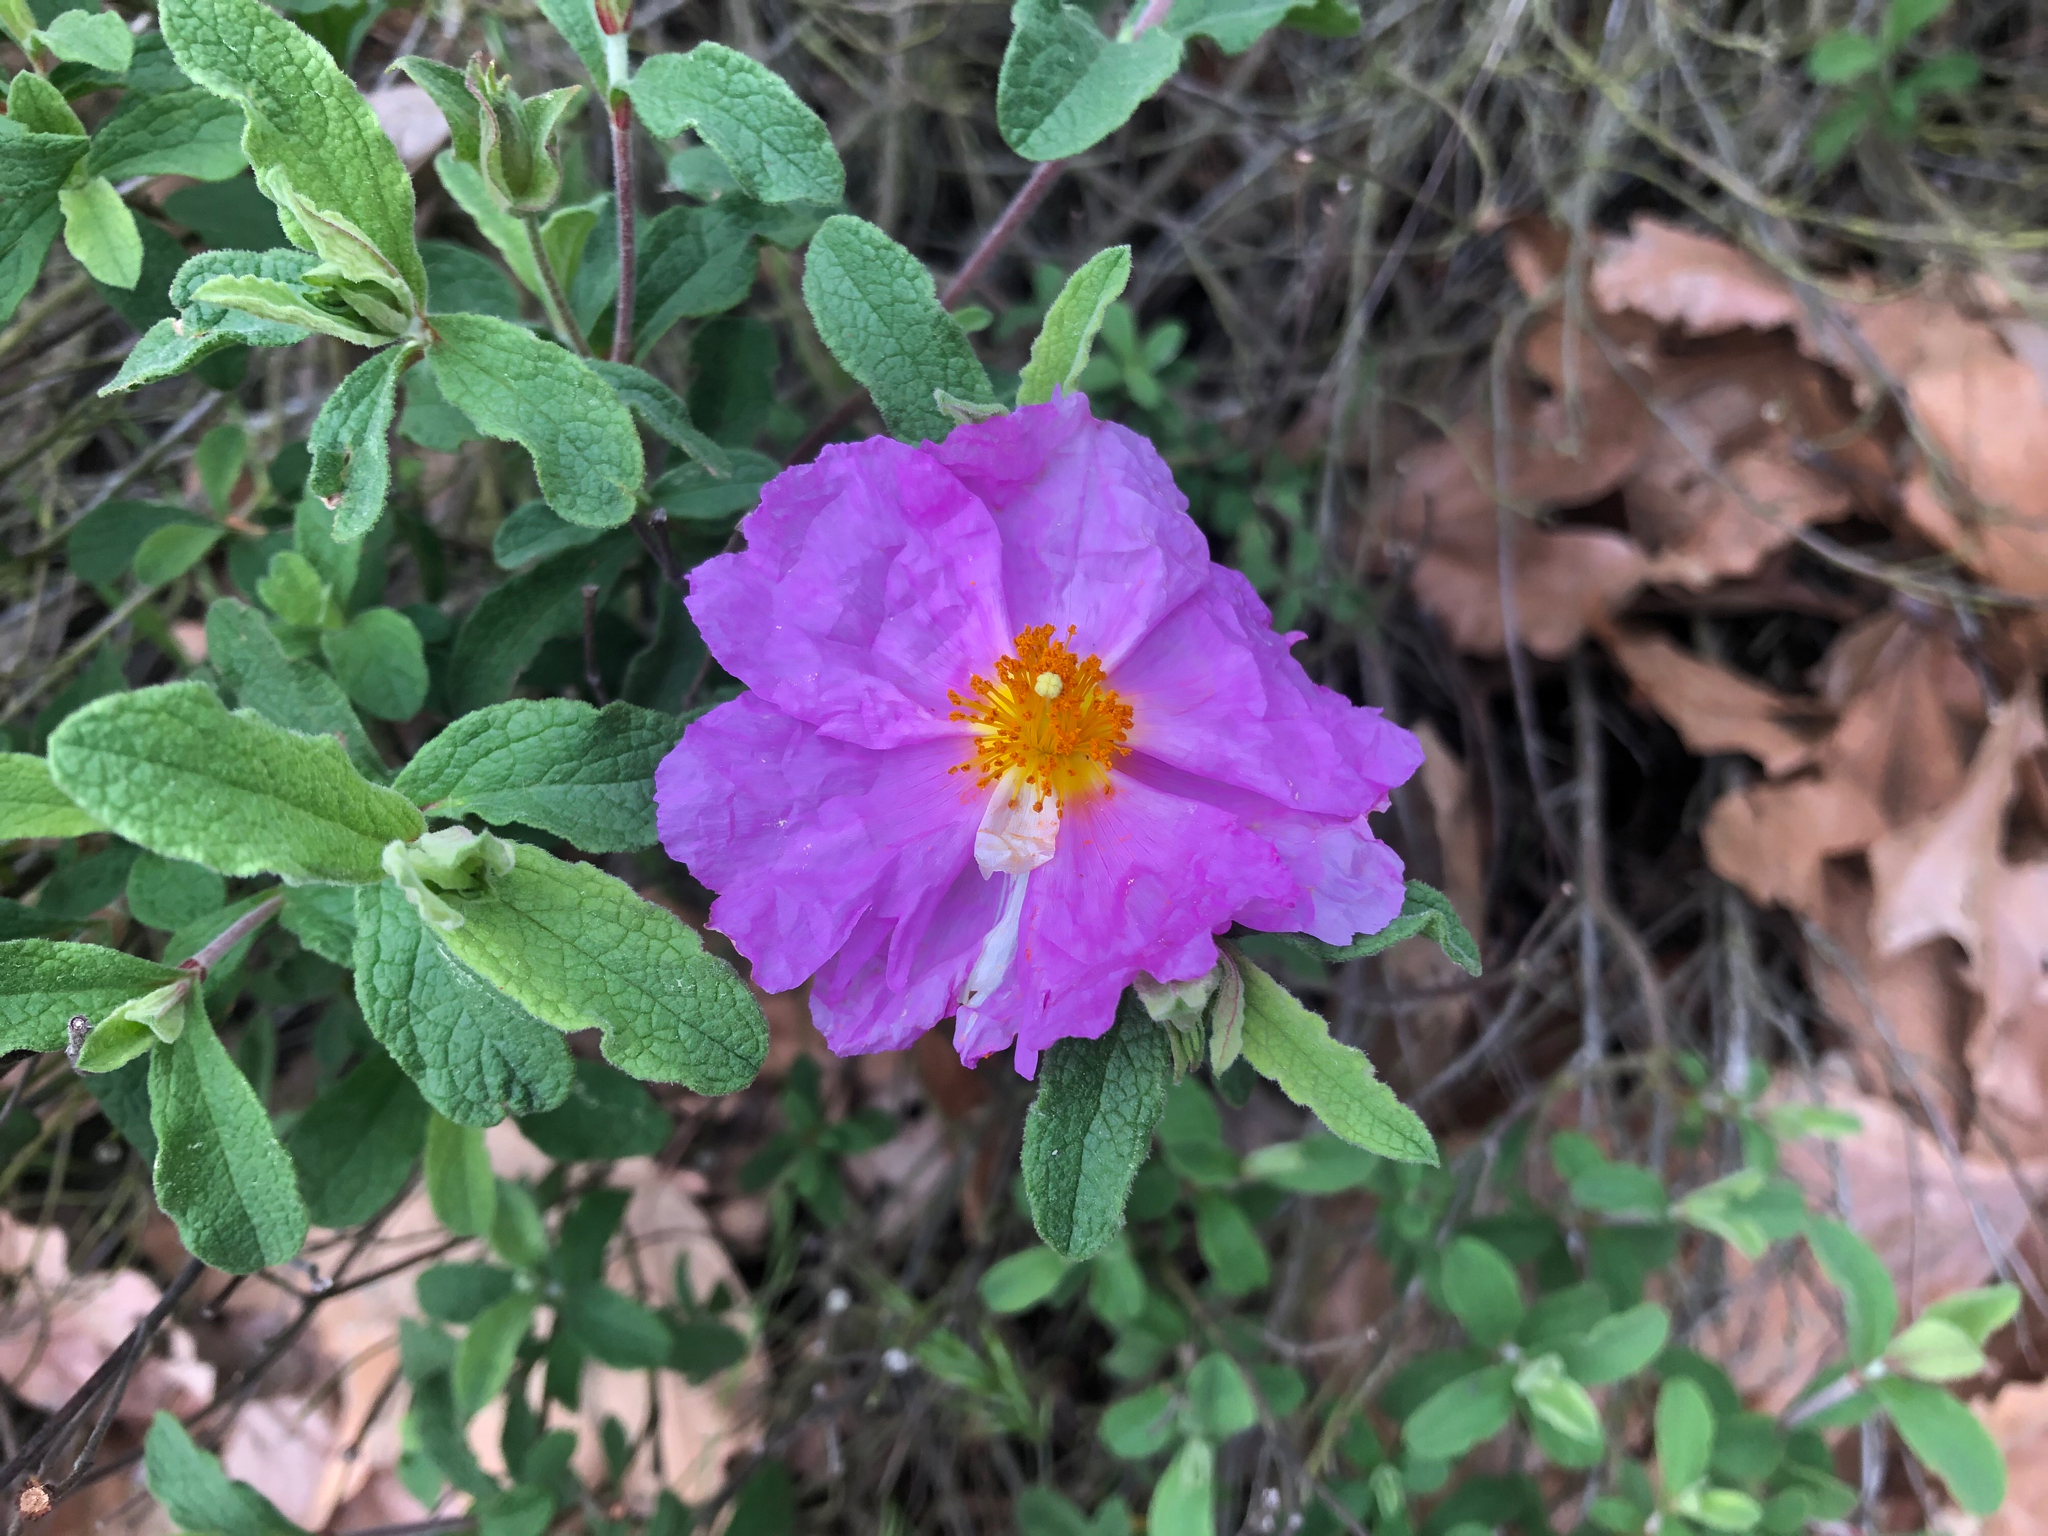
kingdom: Plantae
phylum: Tracheophyta
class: Magnoliopsida
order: Malvales
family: Cistaceae
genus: Cistus
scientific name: Cistus creticus
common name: Cretan rockrose
